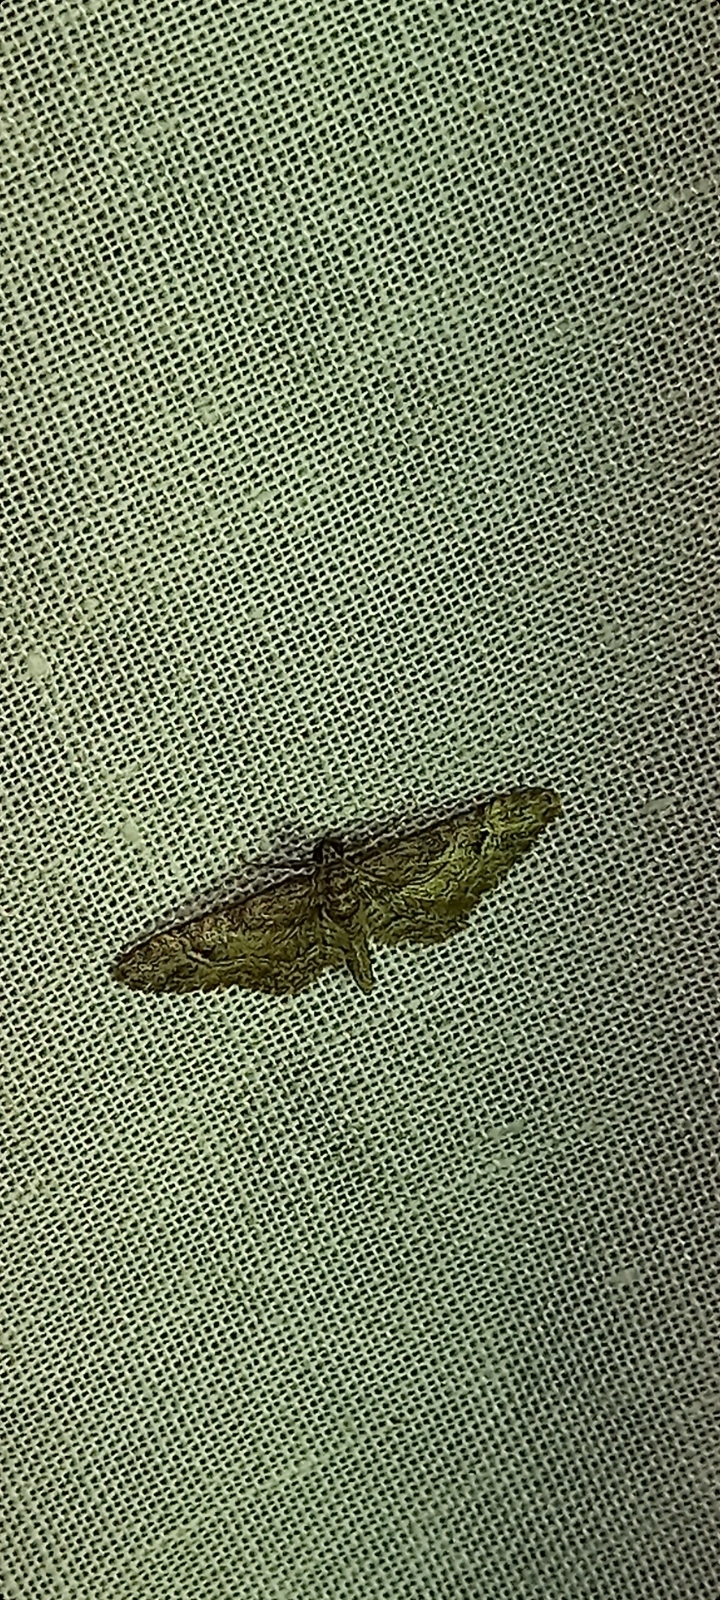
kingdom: Animalia
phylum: Arthropoda
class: Insecta
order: Lepidoptera
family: Geometridae
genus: Gymnoscelis
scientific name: Gymnoscelis rufifasciata
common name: Double-striped pug
